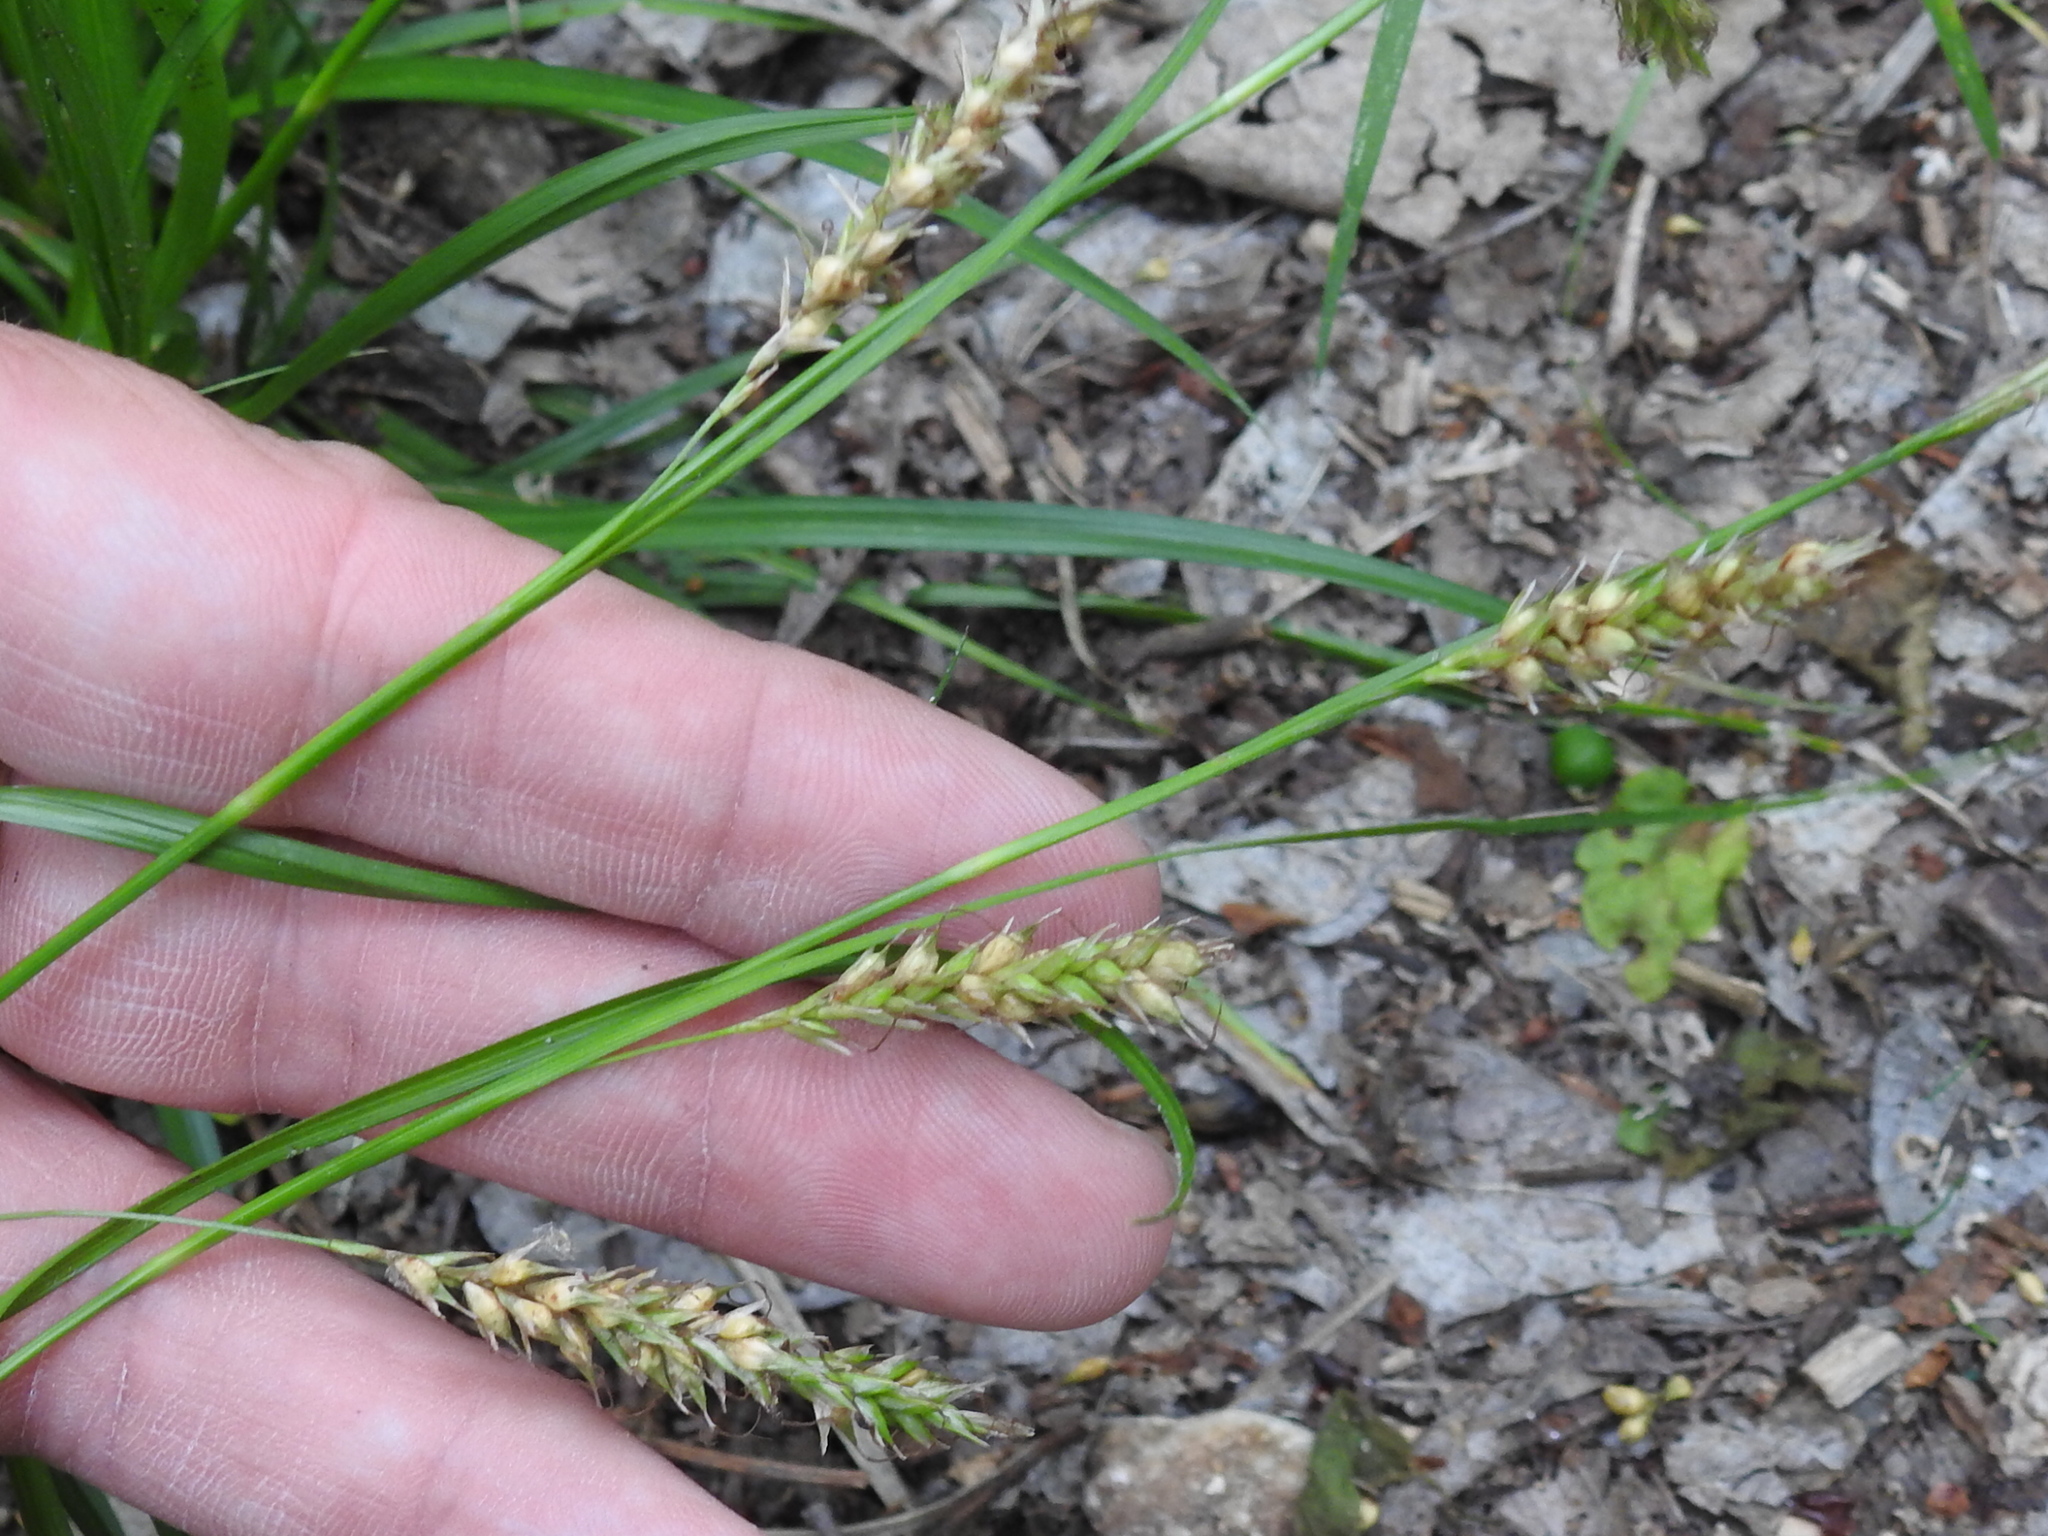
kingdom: Plantae
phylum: Tracheophyta
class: Liliopsida
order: Poales
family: Cyperaceae
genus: Carex
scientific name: Carex cherokeensis
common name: Cherokee sedge
